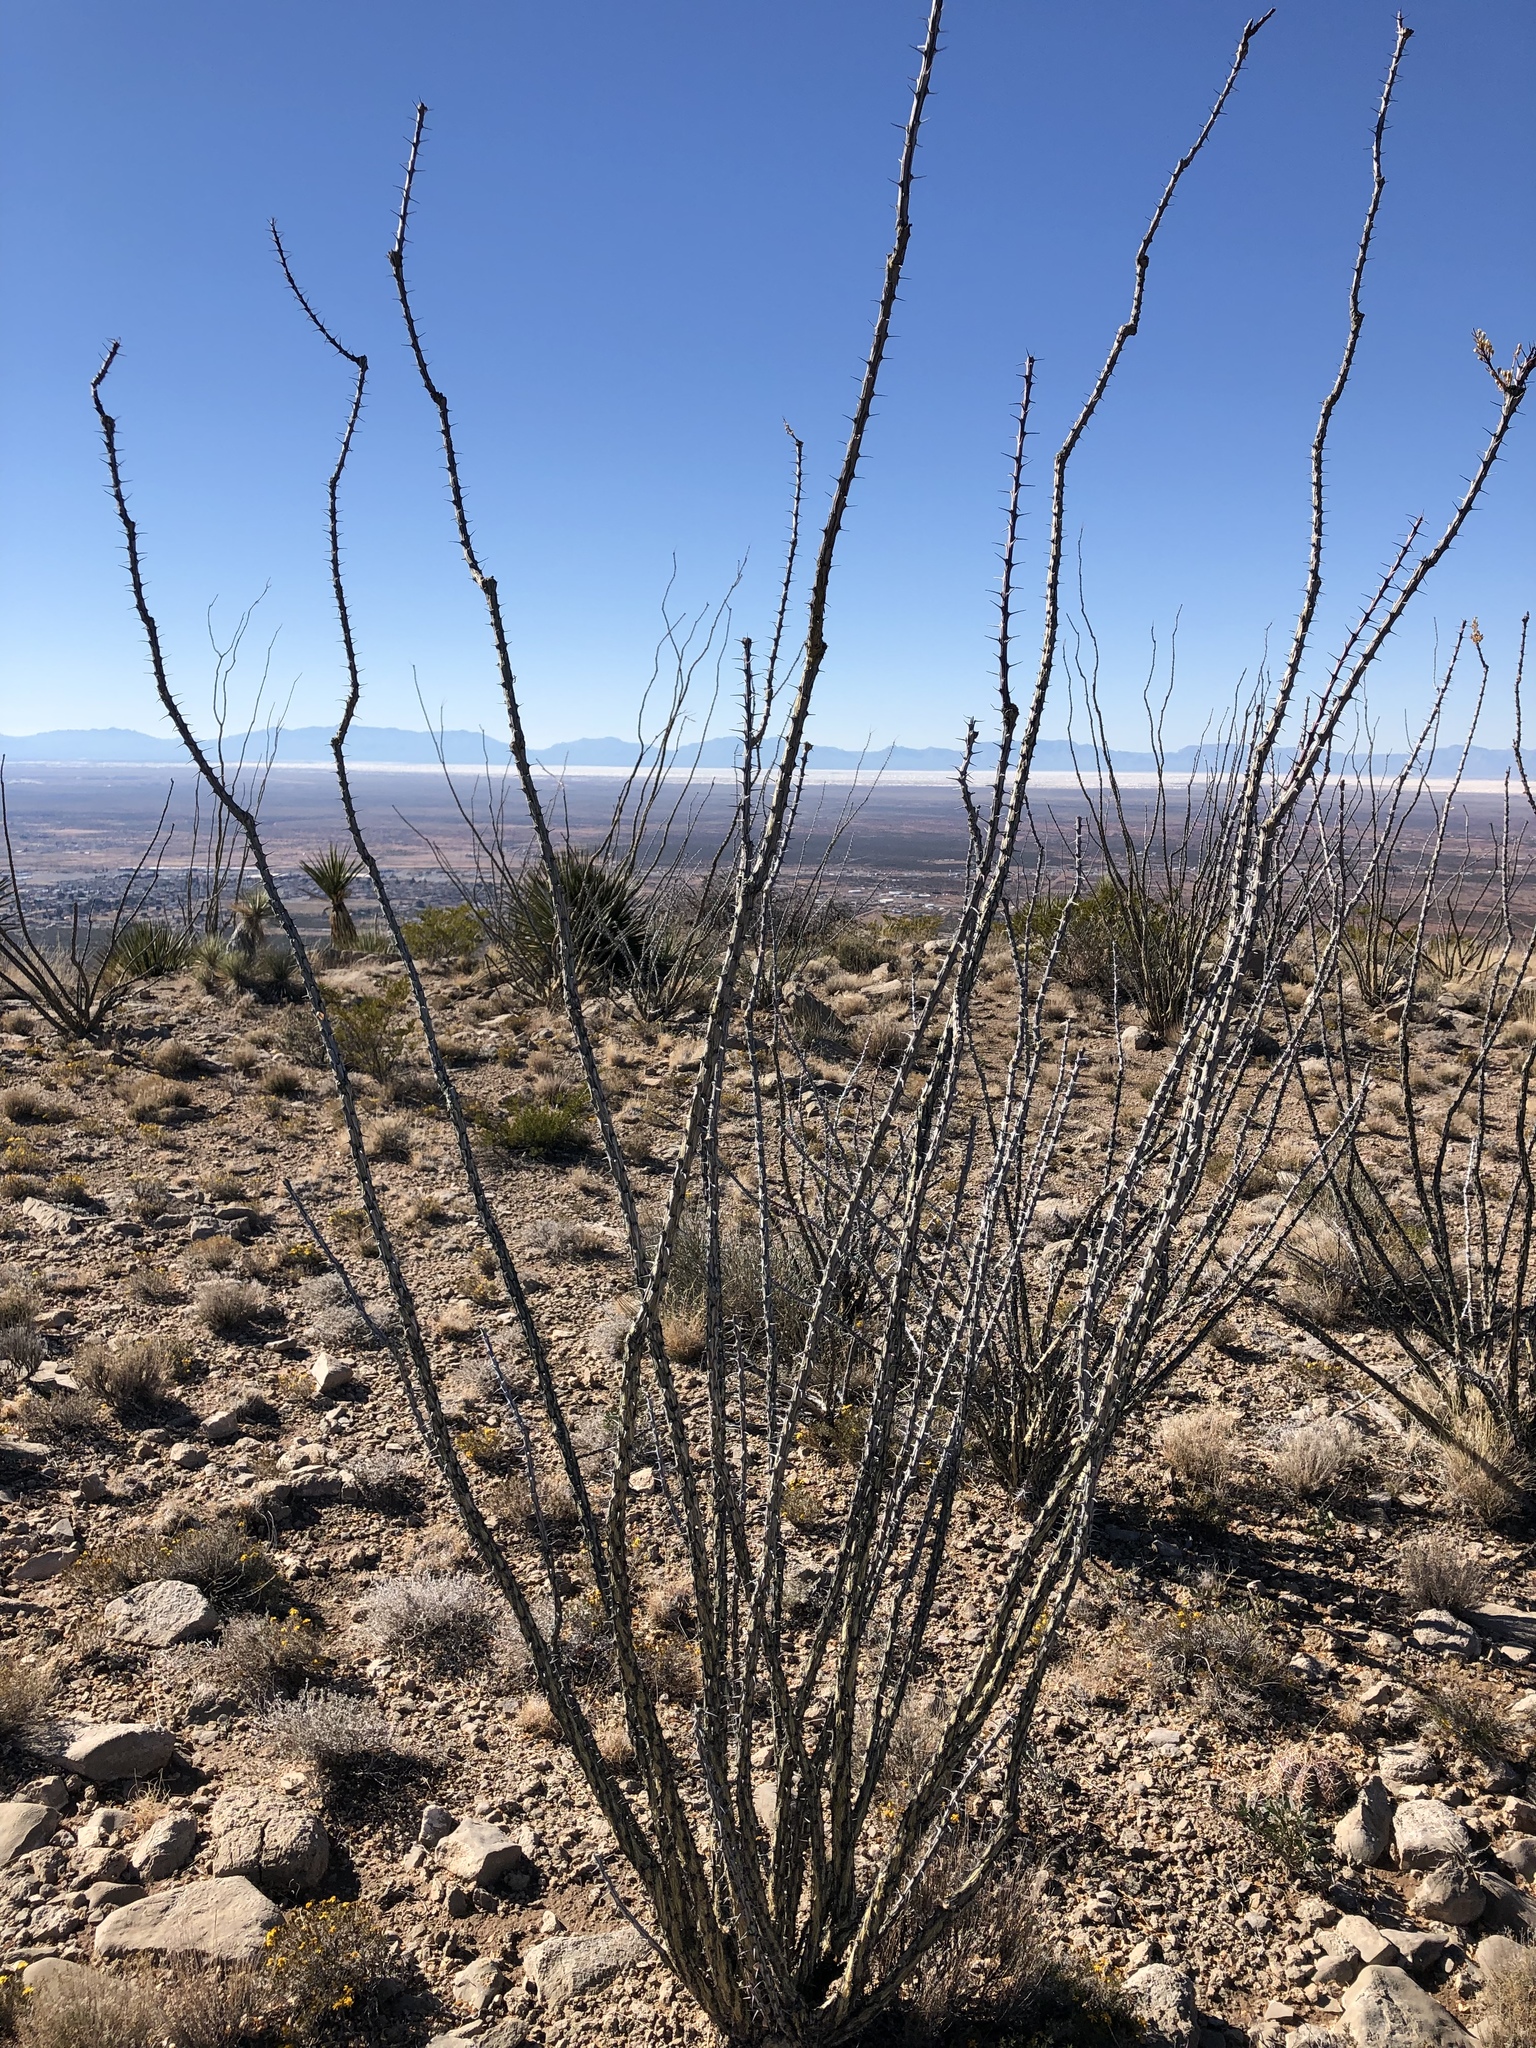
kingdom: Plantae
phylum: Tracheophyta
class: Magnoliopsida
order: Ericales
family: Fouquieriaceae
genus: Fouquieria
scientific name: Fouquieria splendens
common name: Vine-cactus
